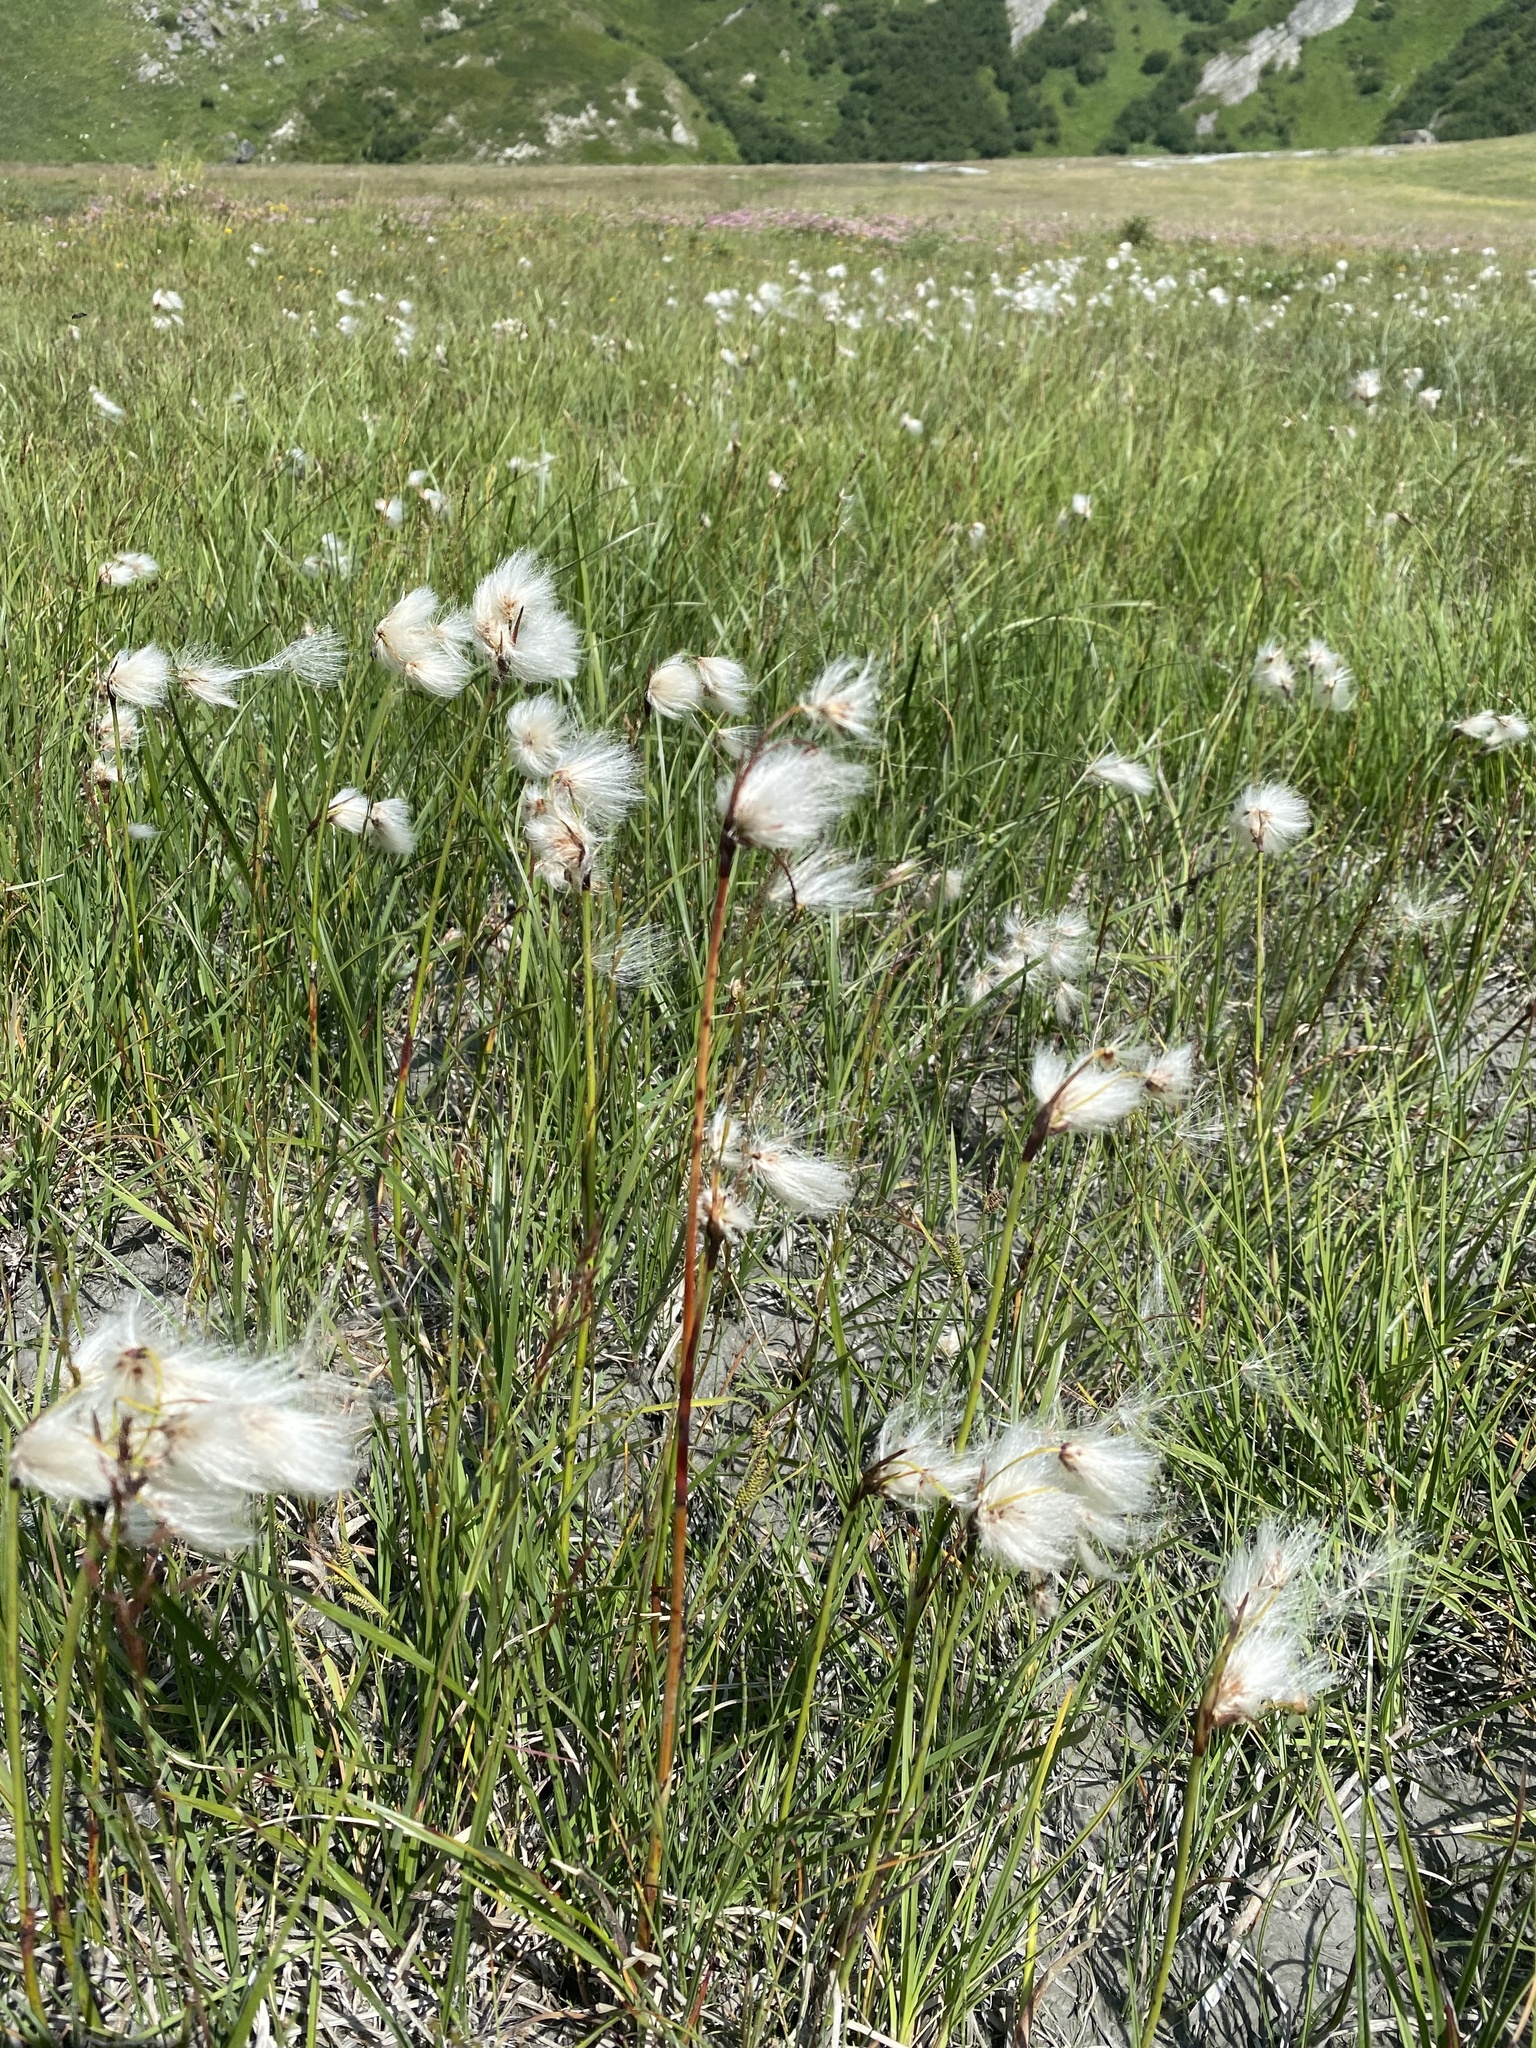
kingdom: Plantae
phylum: Tracheophyta
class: Liliopsida
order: Poales
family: Cyperaceae
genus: Eriophorum
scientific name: Eriophorum angustifolium
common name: Common cottongrass
